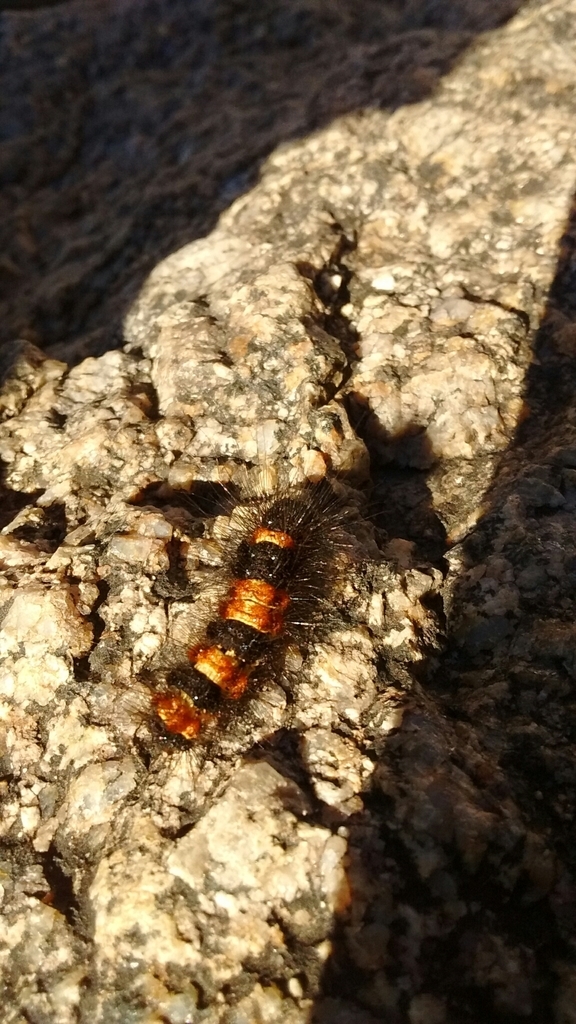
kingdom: Animalia
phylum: Arthropoda
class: Insecta
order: Lepidoptera
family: Erebidae
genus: Dysschema
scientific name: Dysschema howardi
